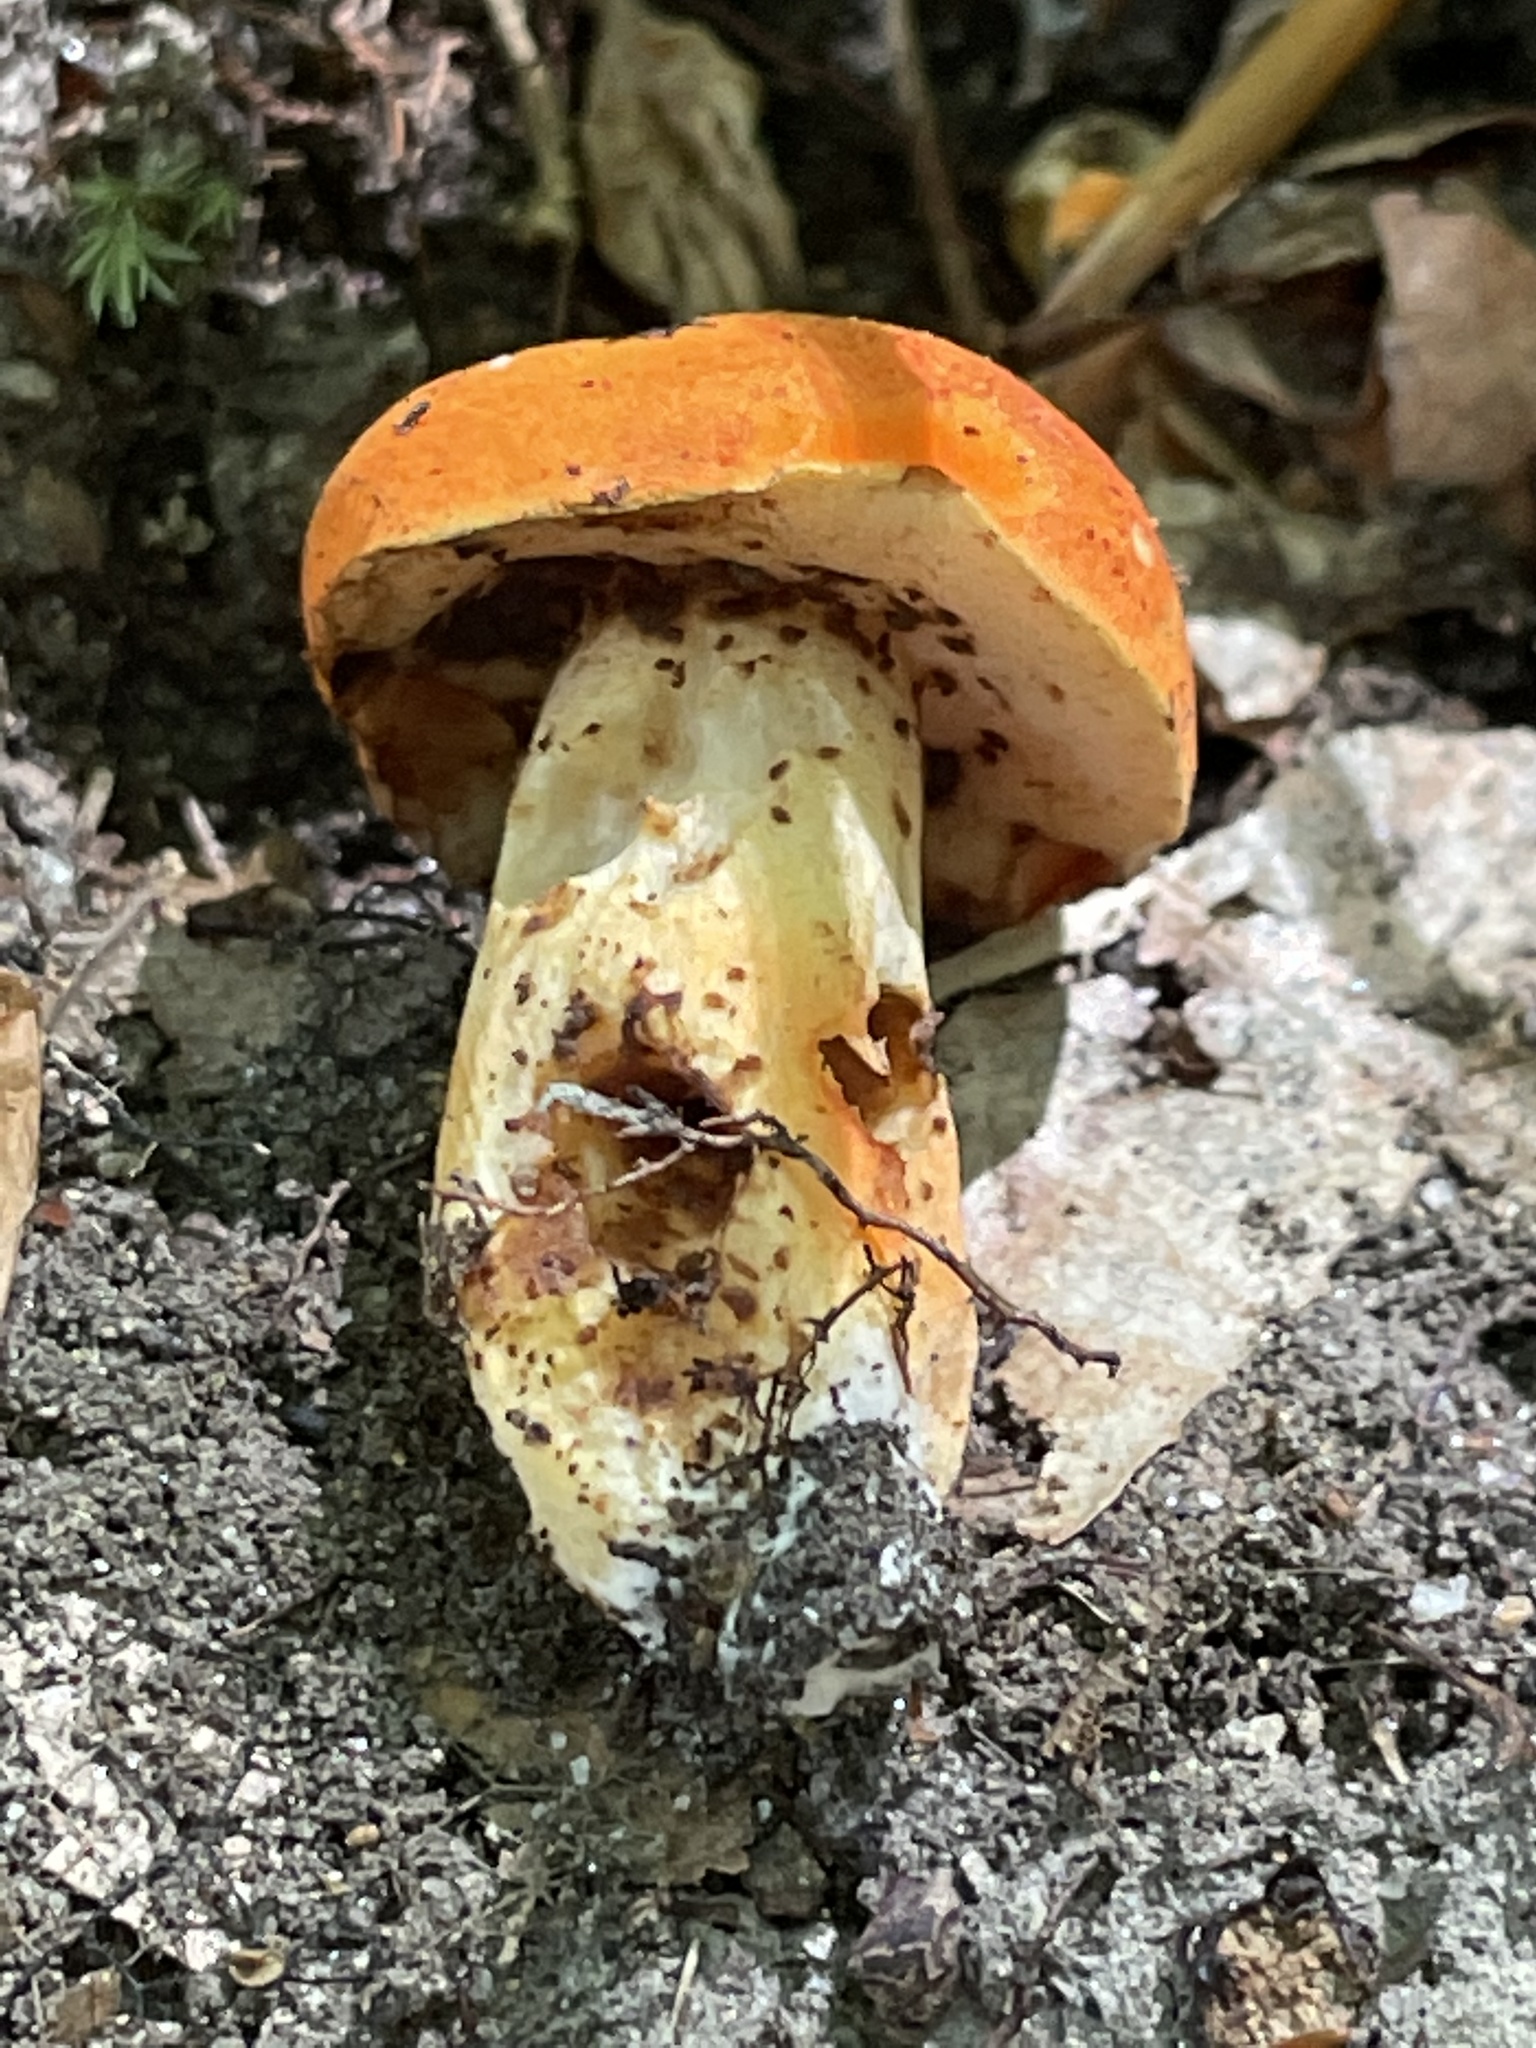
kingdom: Fungi
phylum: Basidiomycota
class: Agaricomycetes
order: Boletales
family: Boletaceae
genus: Tylopilus
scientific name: Tylopilus balloui
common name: Burnt-orange bolete
